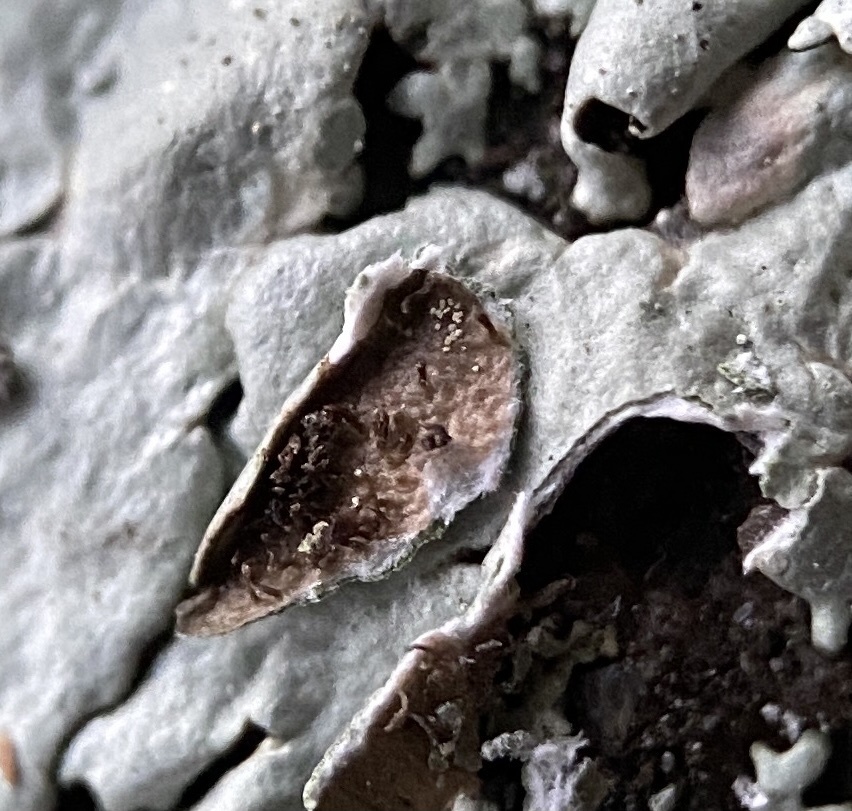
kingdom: Fungi
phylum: Ascomycota
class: Lecanoromycetes
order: Lecanorales
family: Parmeliaceae
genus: Xanthoparmelia
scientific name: Xanthoparmelia plittii
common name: Plitt's rock shield
